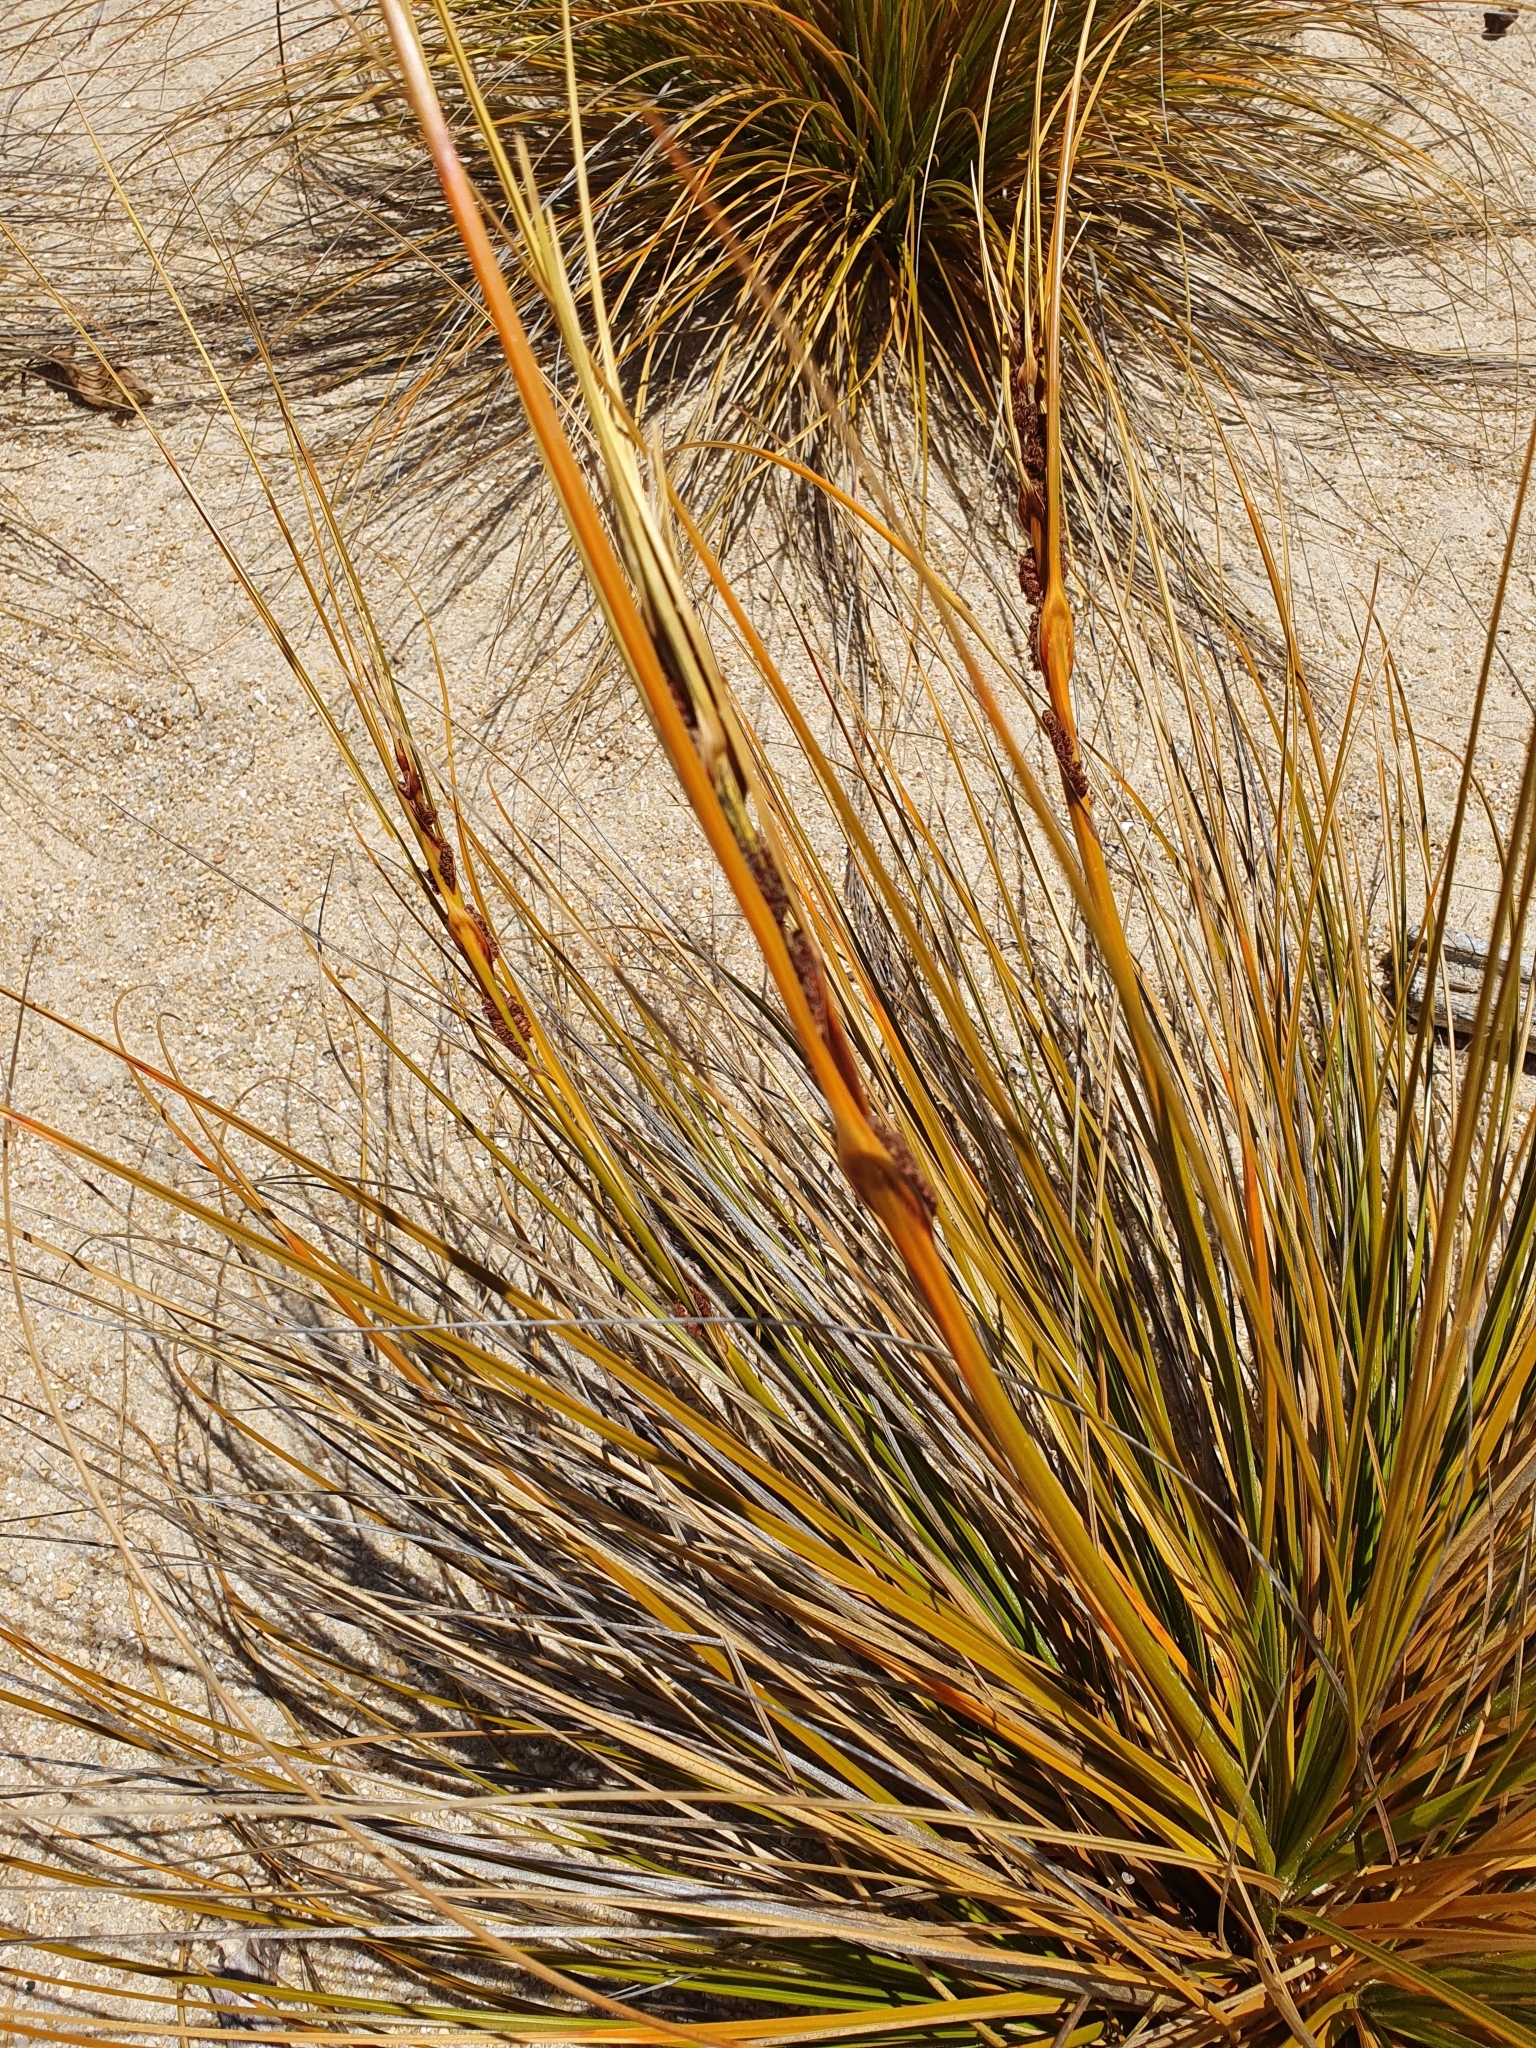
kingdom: Plantae
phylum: Tracheophyta
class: Liliopsida
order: Poales
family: Cyperaceae
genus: Ficinia
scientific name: Ficinia spiralis
